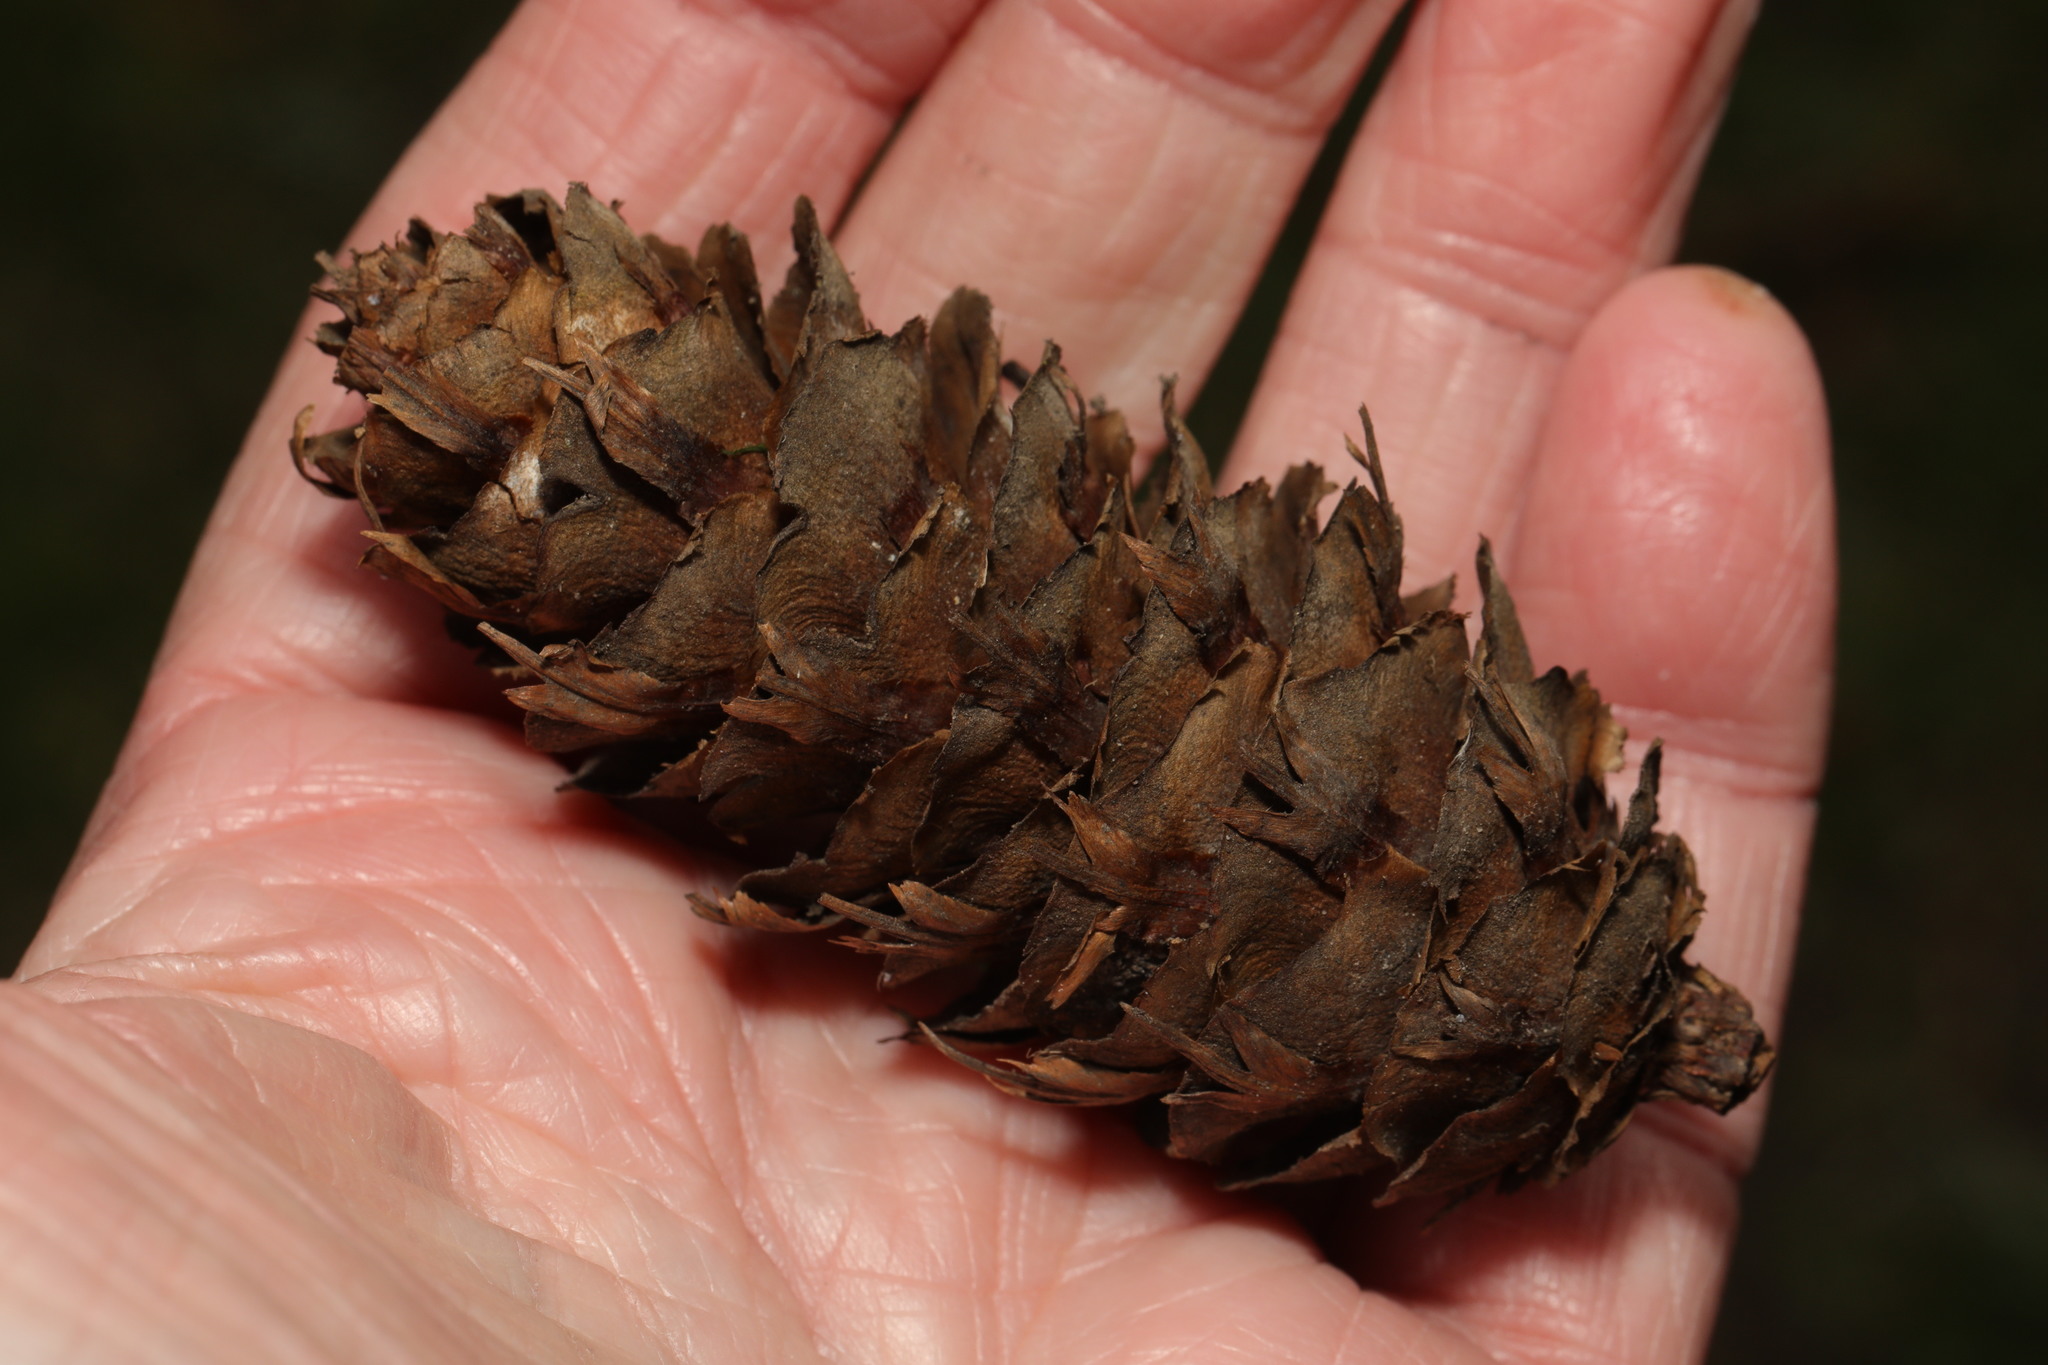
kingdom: Plantae
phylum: Tracheophyta
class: Pinopsida
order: Pinales
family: Pinaceae
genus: Pseudotsuga
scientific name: Pseudotsuga menziesii
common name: Douglas fir
